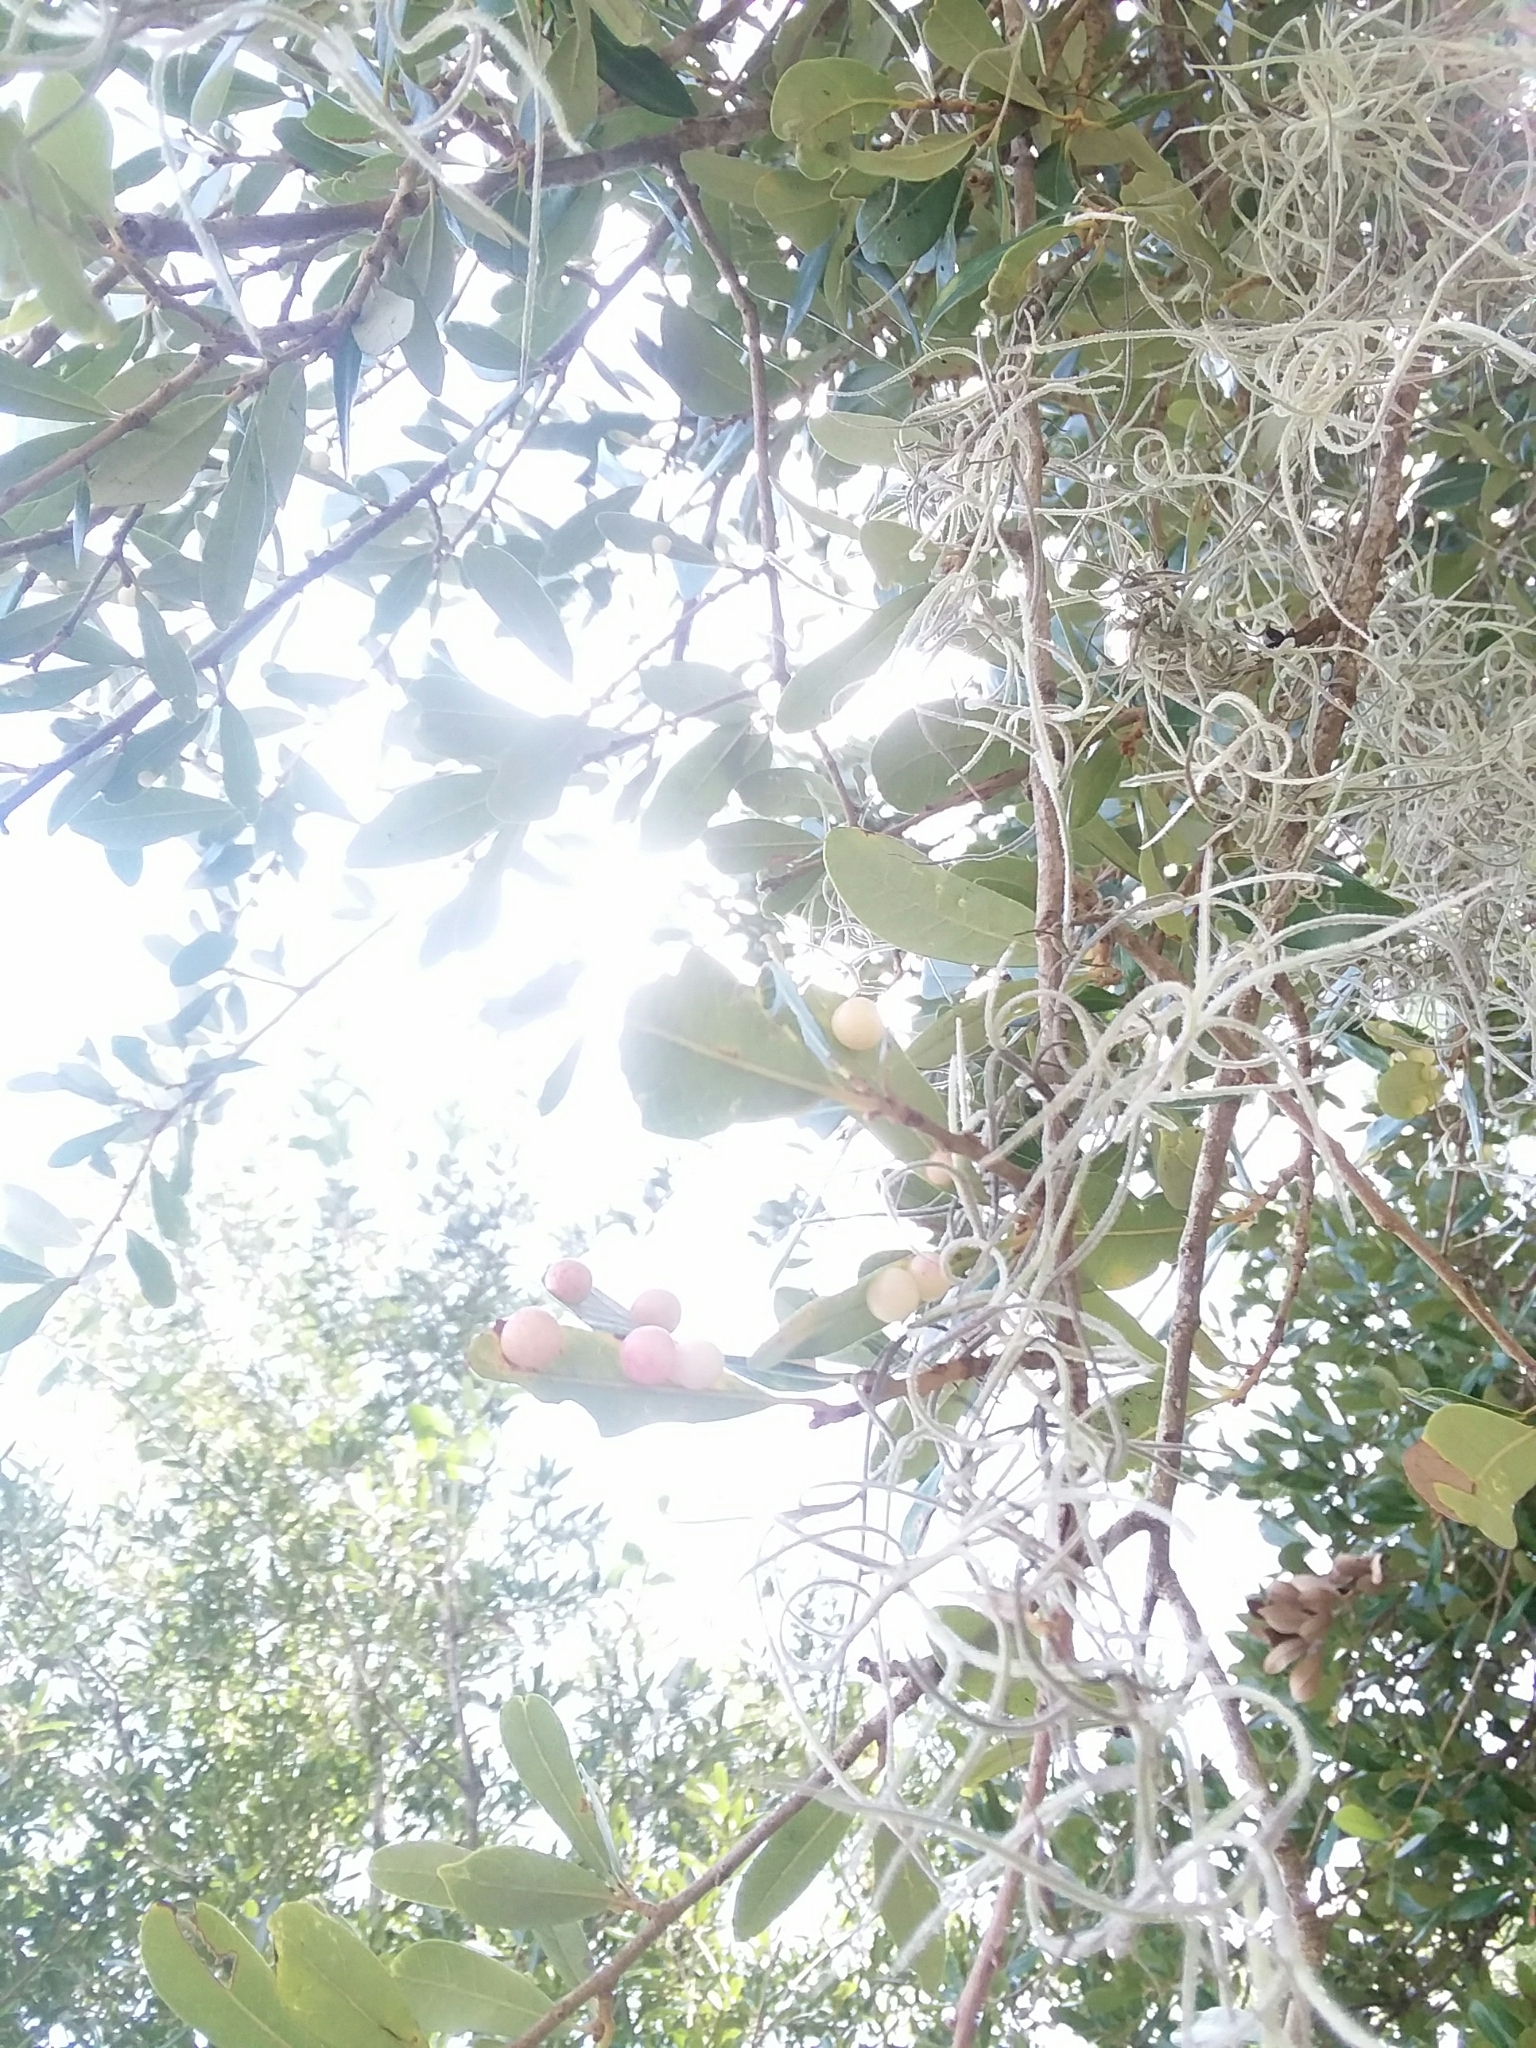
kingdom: Animalia
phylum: Arthropoda
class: Insecta
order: Hymenoptera
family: Cynipidae
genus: Belonocnema
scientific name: Belonocnema treatae
